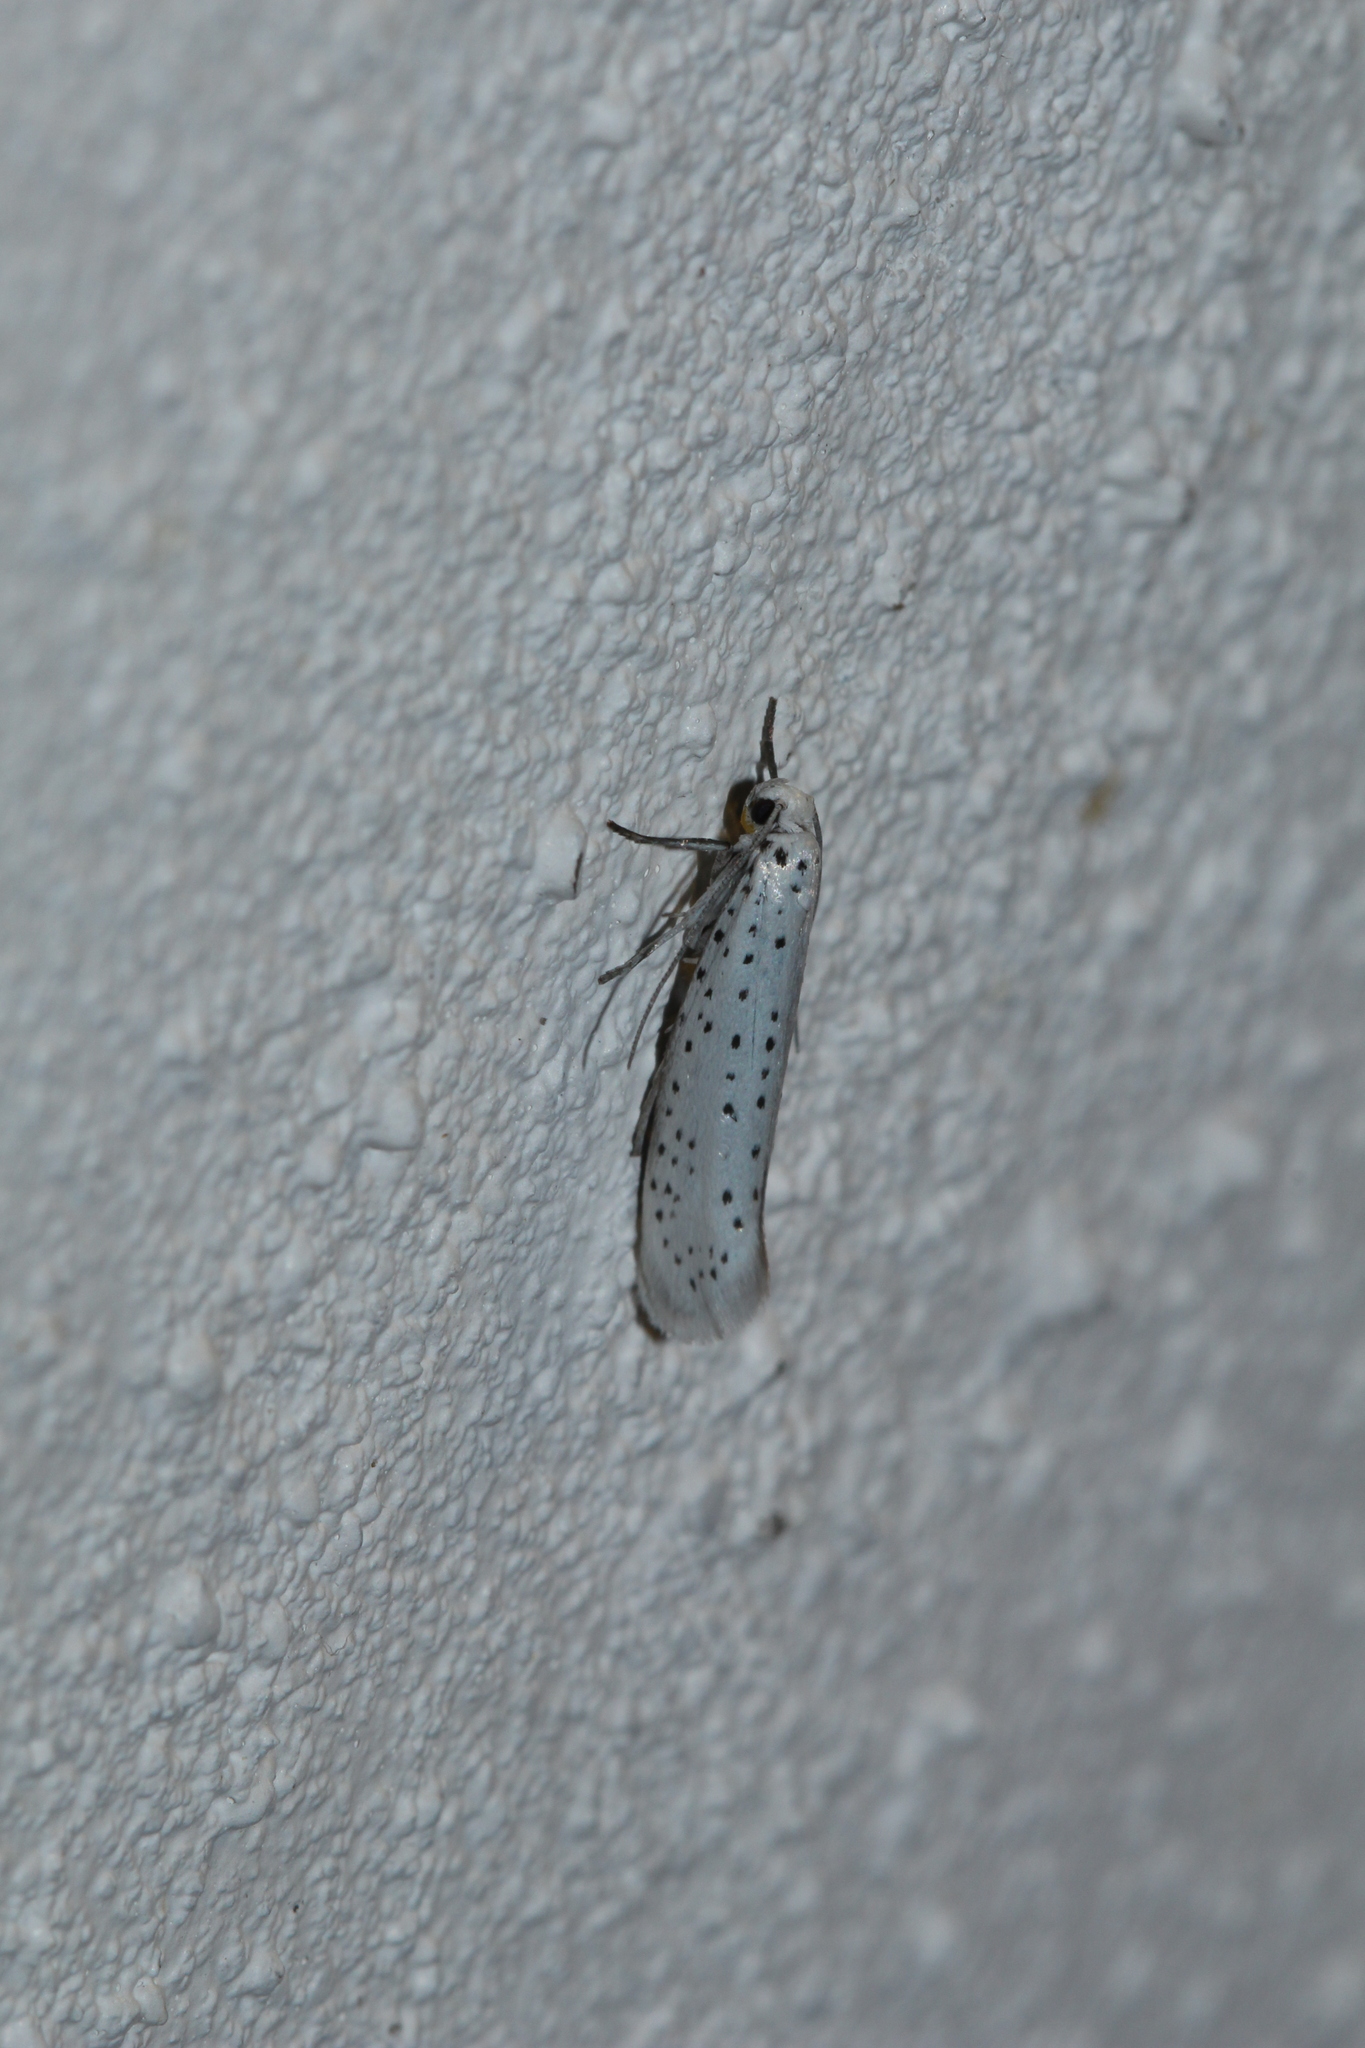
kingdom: Animalia
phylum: Arthropoda
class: Insecta
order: Lepidoptera
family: Yponomeutidae
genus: Yponomeuta
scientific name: Yponomeuta evonymella
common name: Bird-cherry ermine
